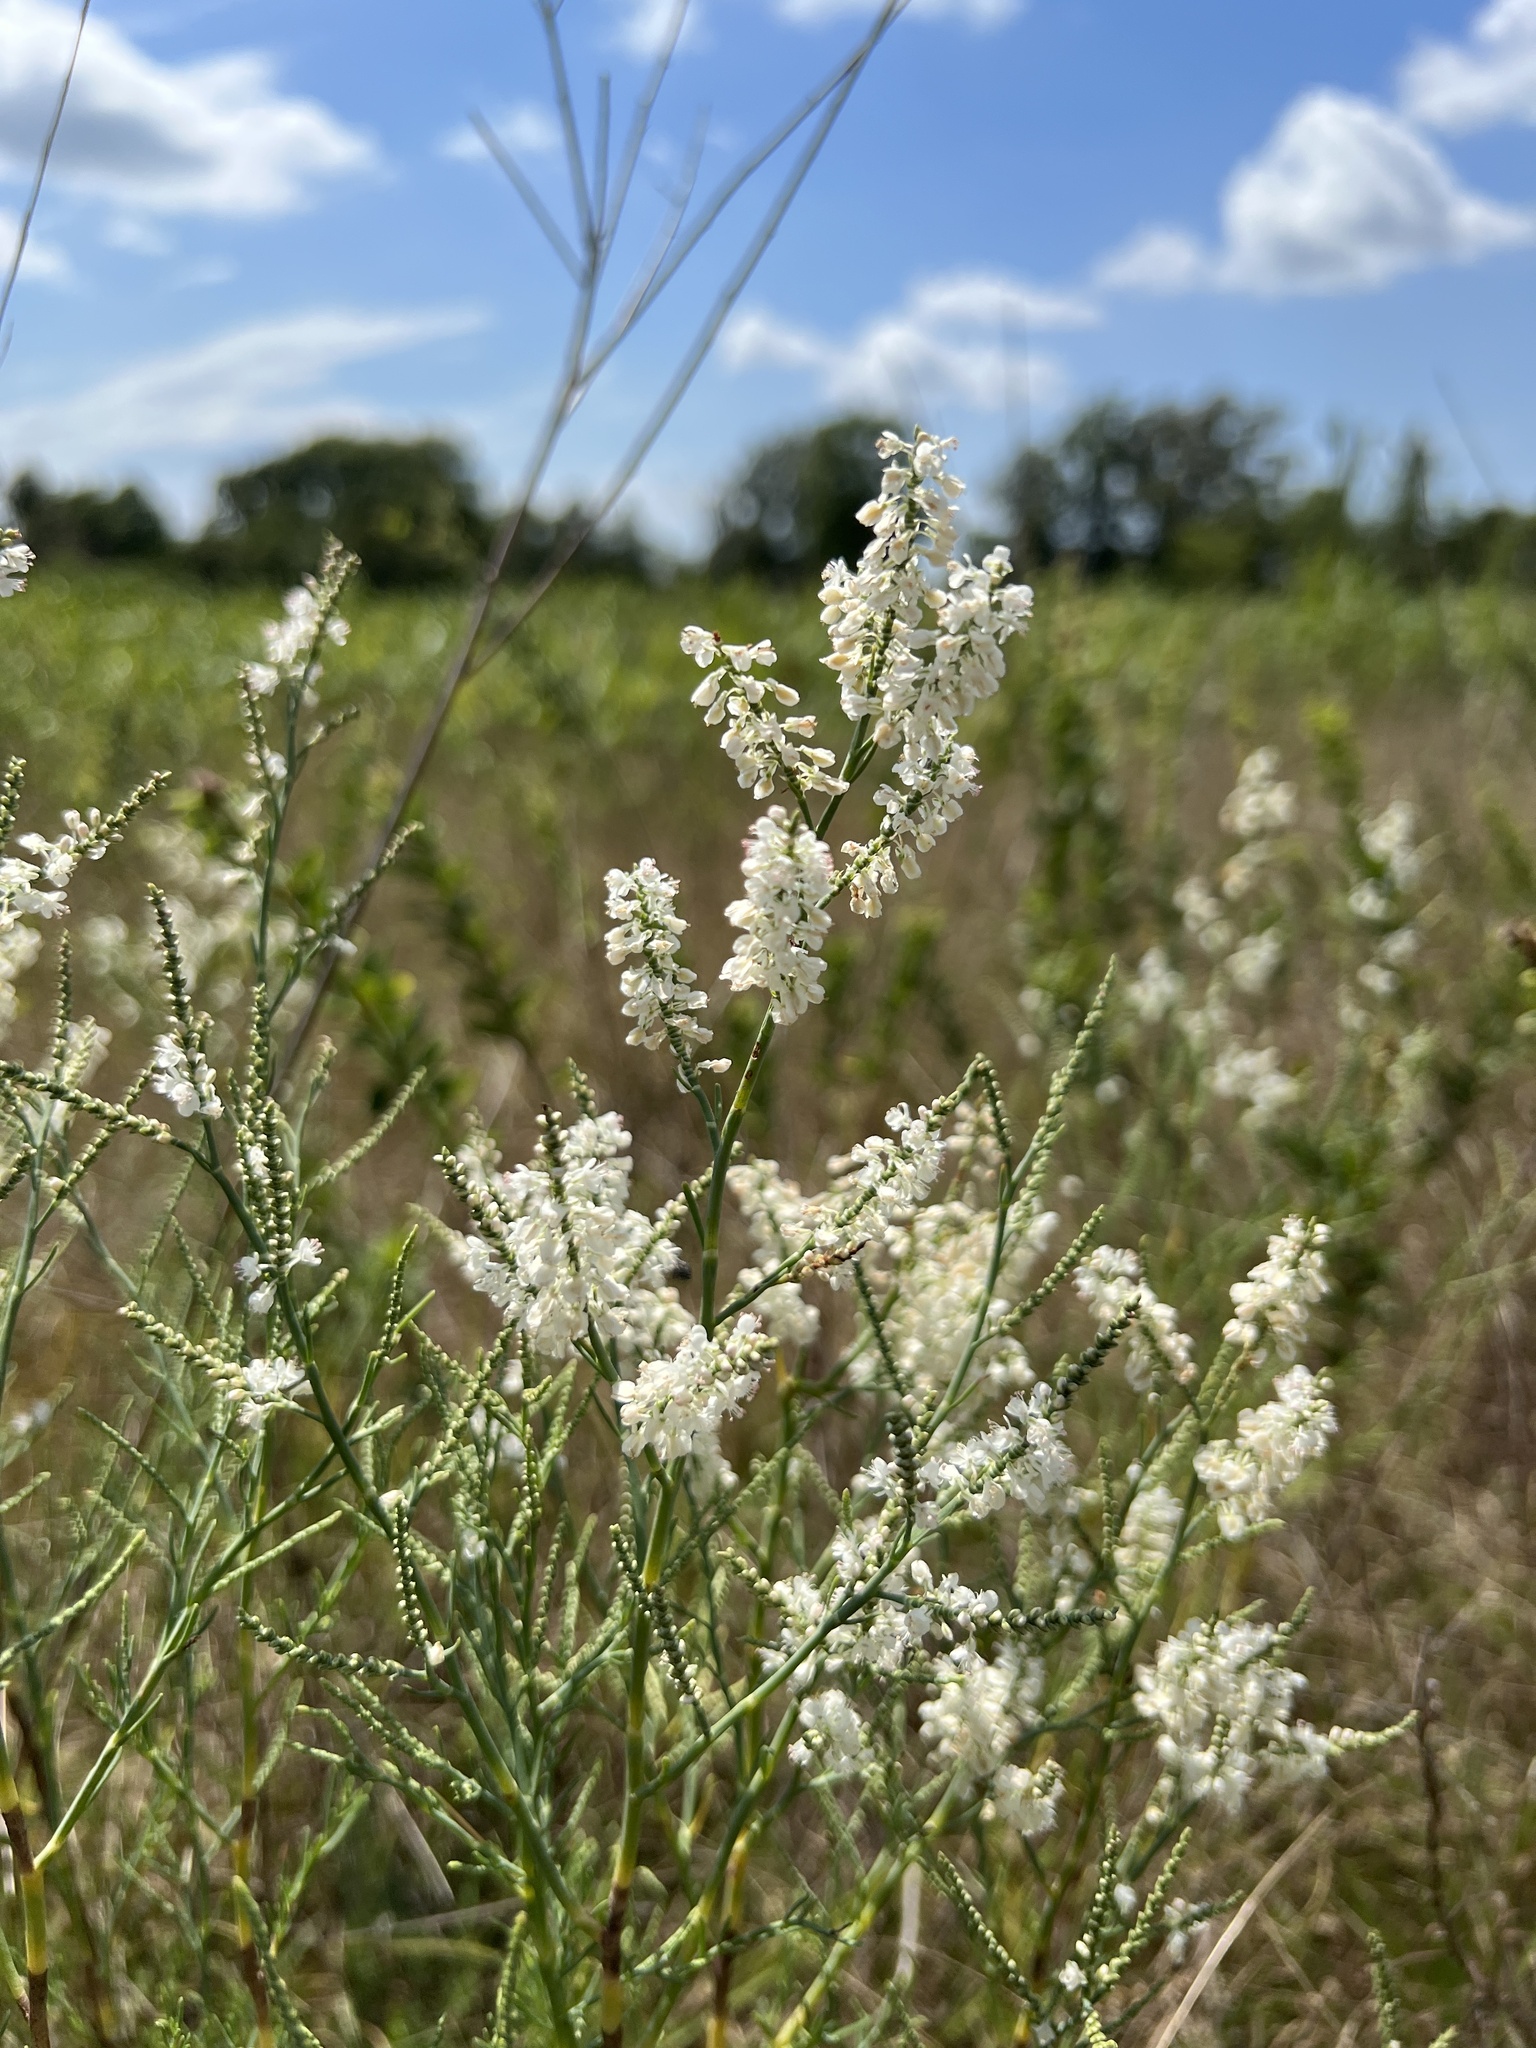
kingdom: Plantae
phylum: Tracheophyta
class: Magnoliopsida
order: Caryophyllales
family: Polygonaceae
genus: Polygonella
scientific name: Polygonella americana
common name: Southern jointweed
